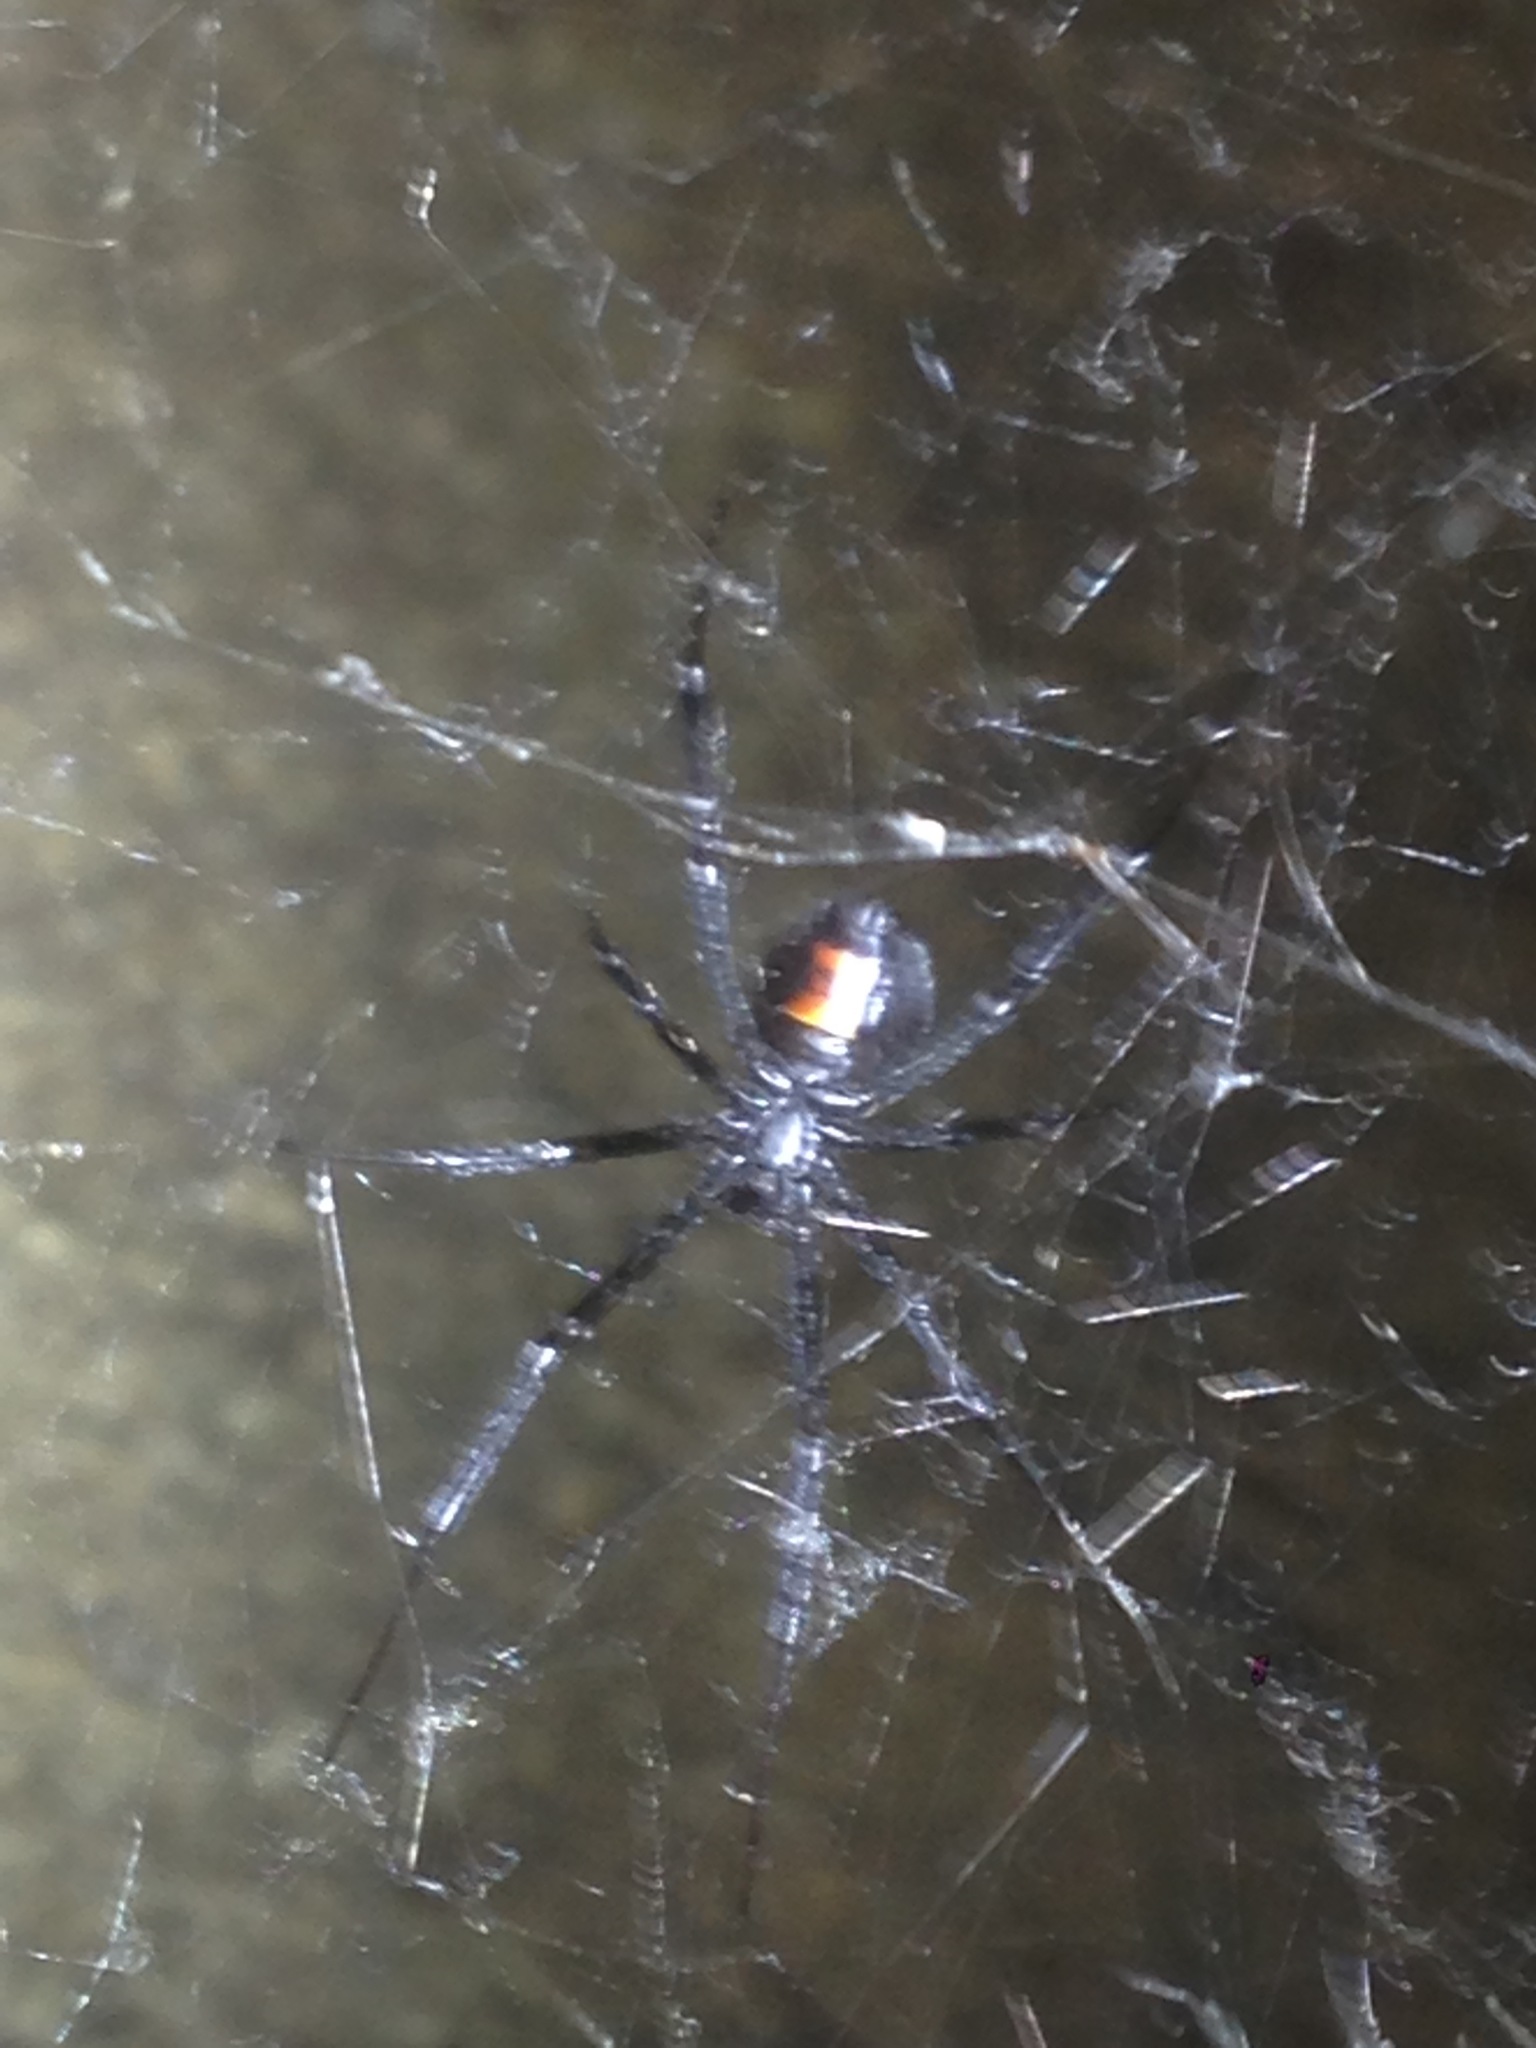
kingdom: Animalia
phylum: Arthropoda
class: Arachnida
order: Araneae
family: Theridiidae
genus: Latrodectus
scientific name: Latrodectus hesperus
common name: Western black widow
